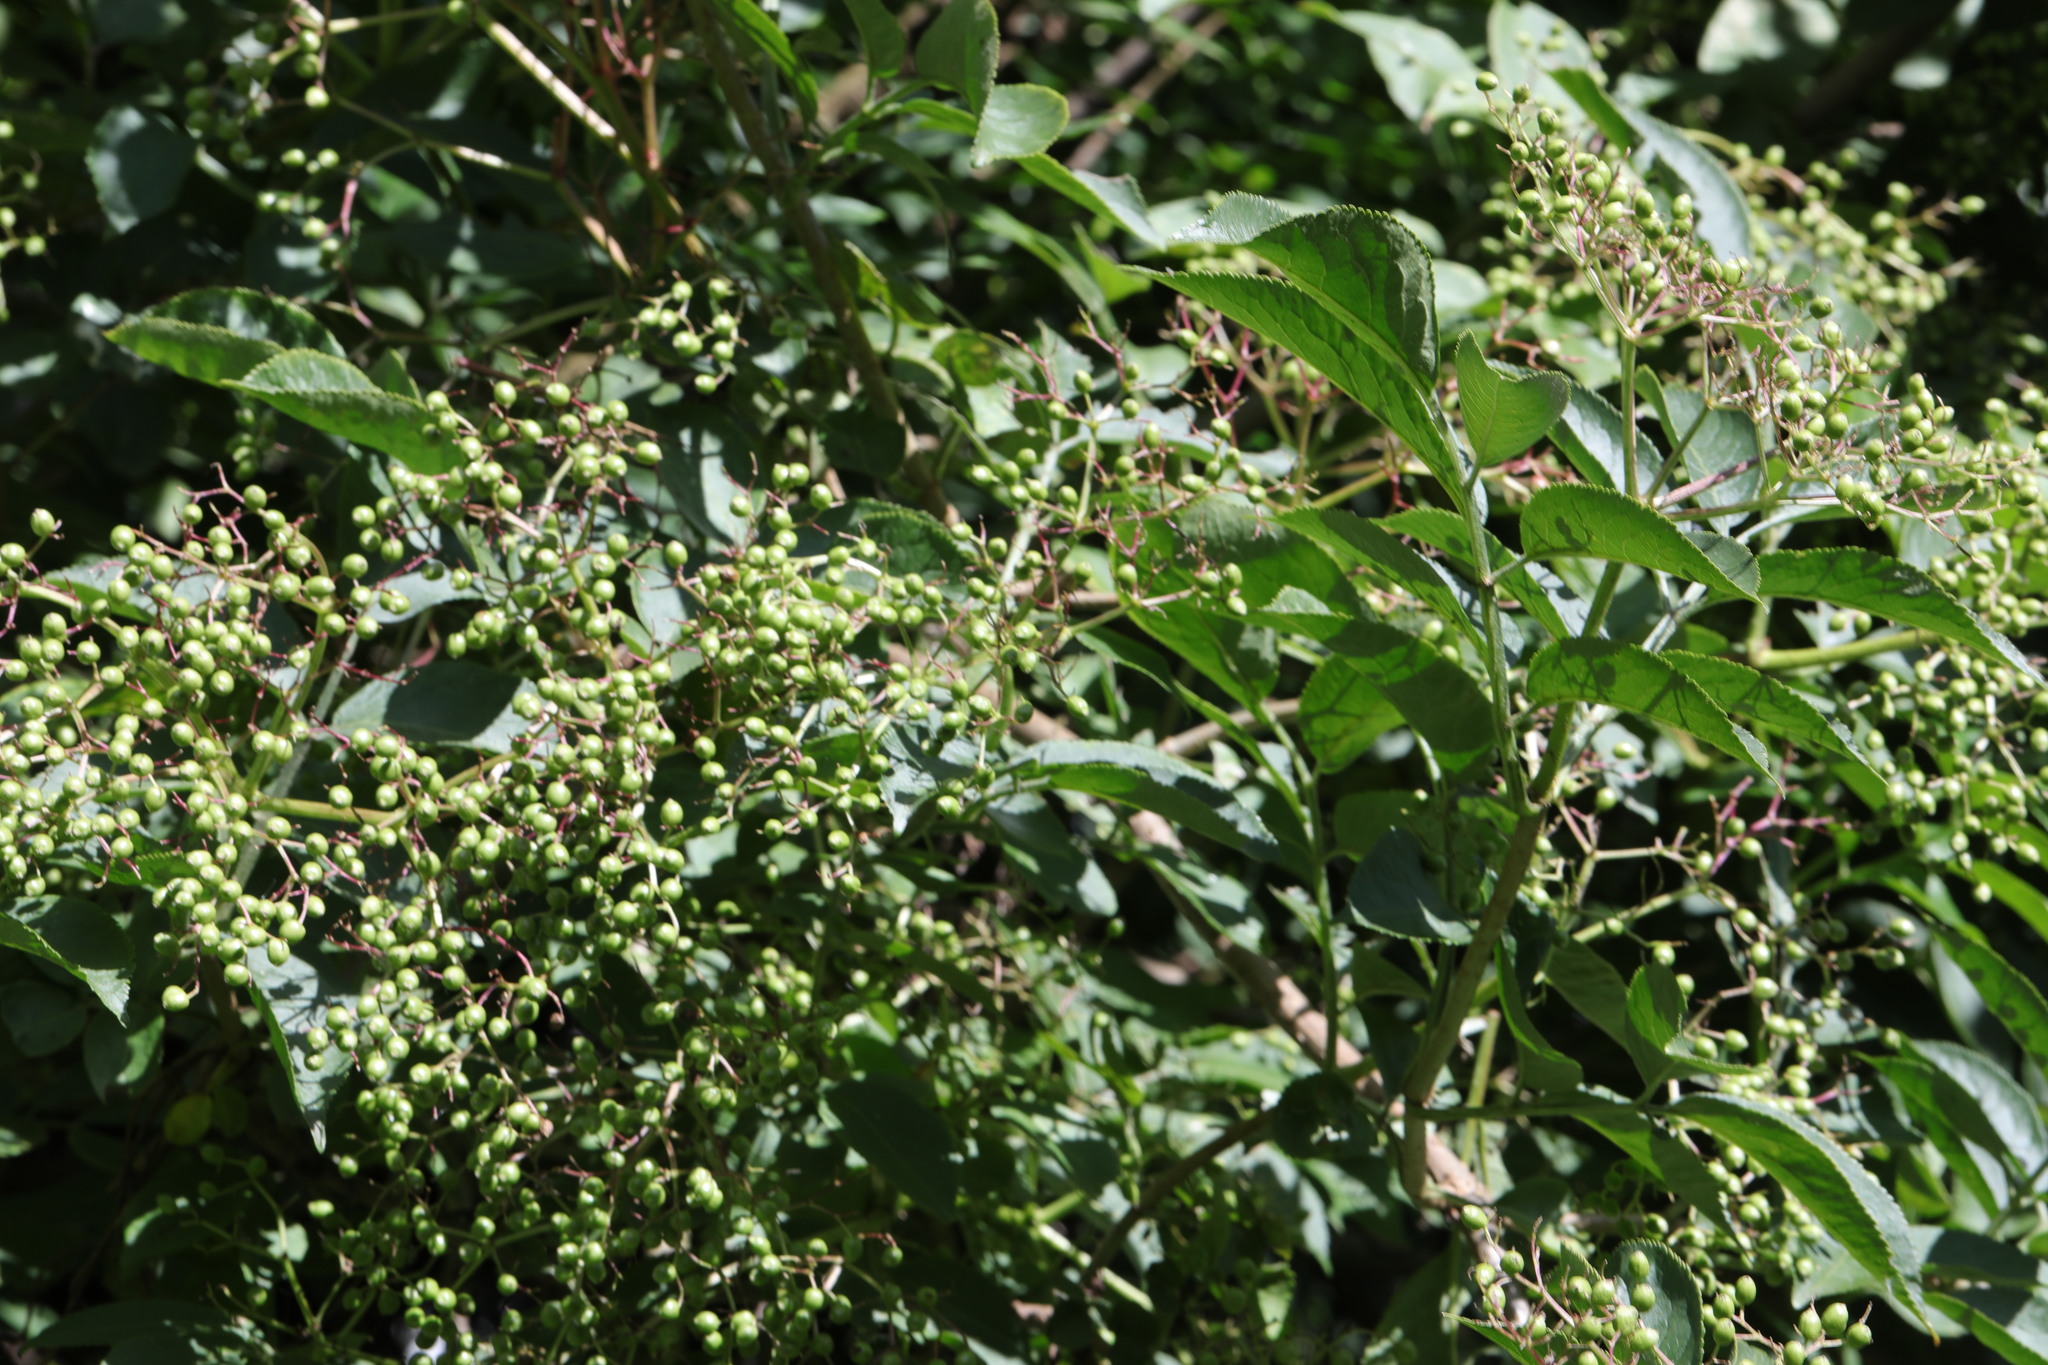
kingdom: Plantae
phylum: Tracheophyta
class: Magnoliopsida
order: Dipsacales
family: Viburnaceae
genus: Sambucus
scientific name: Sambucus nigra
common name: Elder
